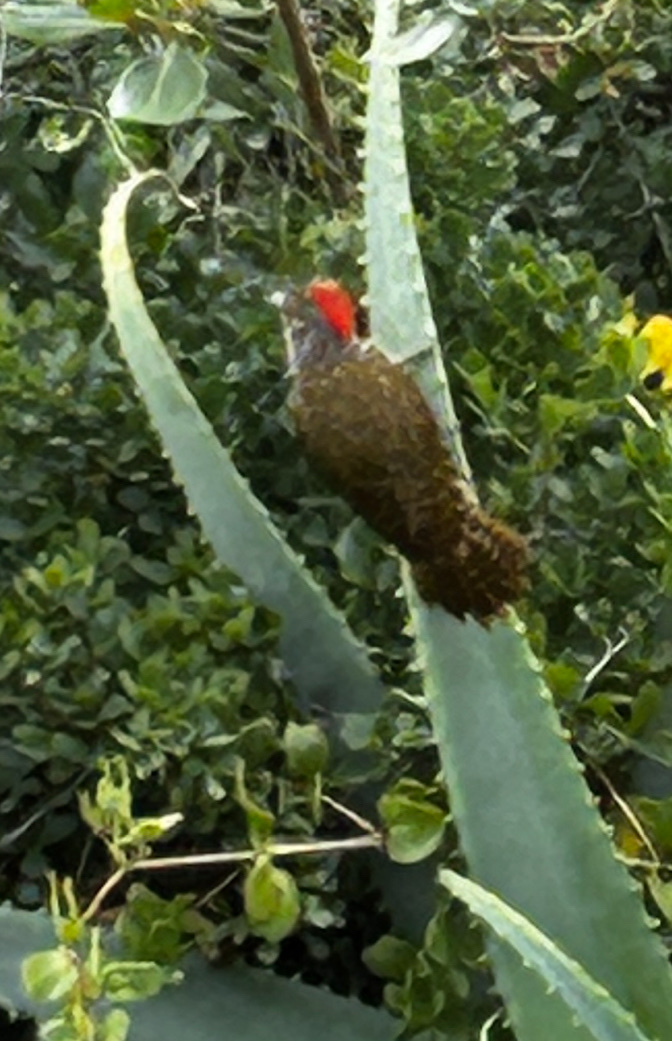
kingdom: Animalia
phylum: Chordata
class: Aves
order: Piciformes
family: Picidae
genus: Campethera
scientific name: Campethera notata
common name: Knysna woodpecker
